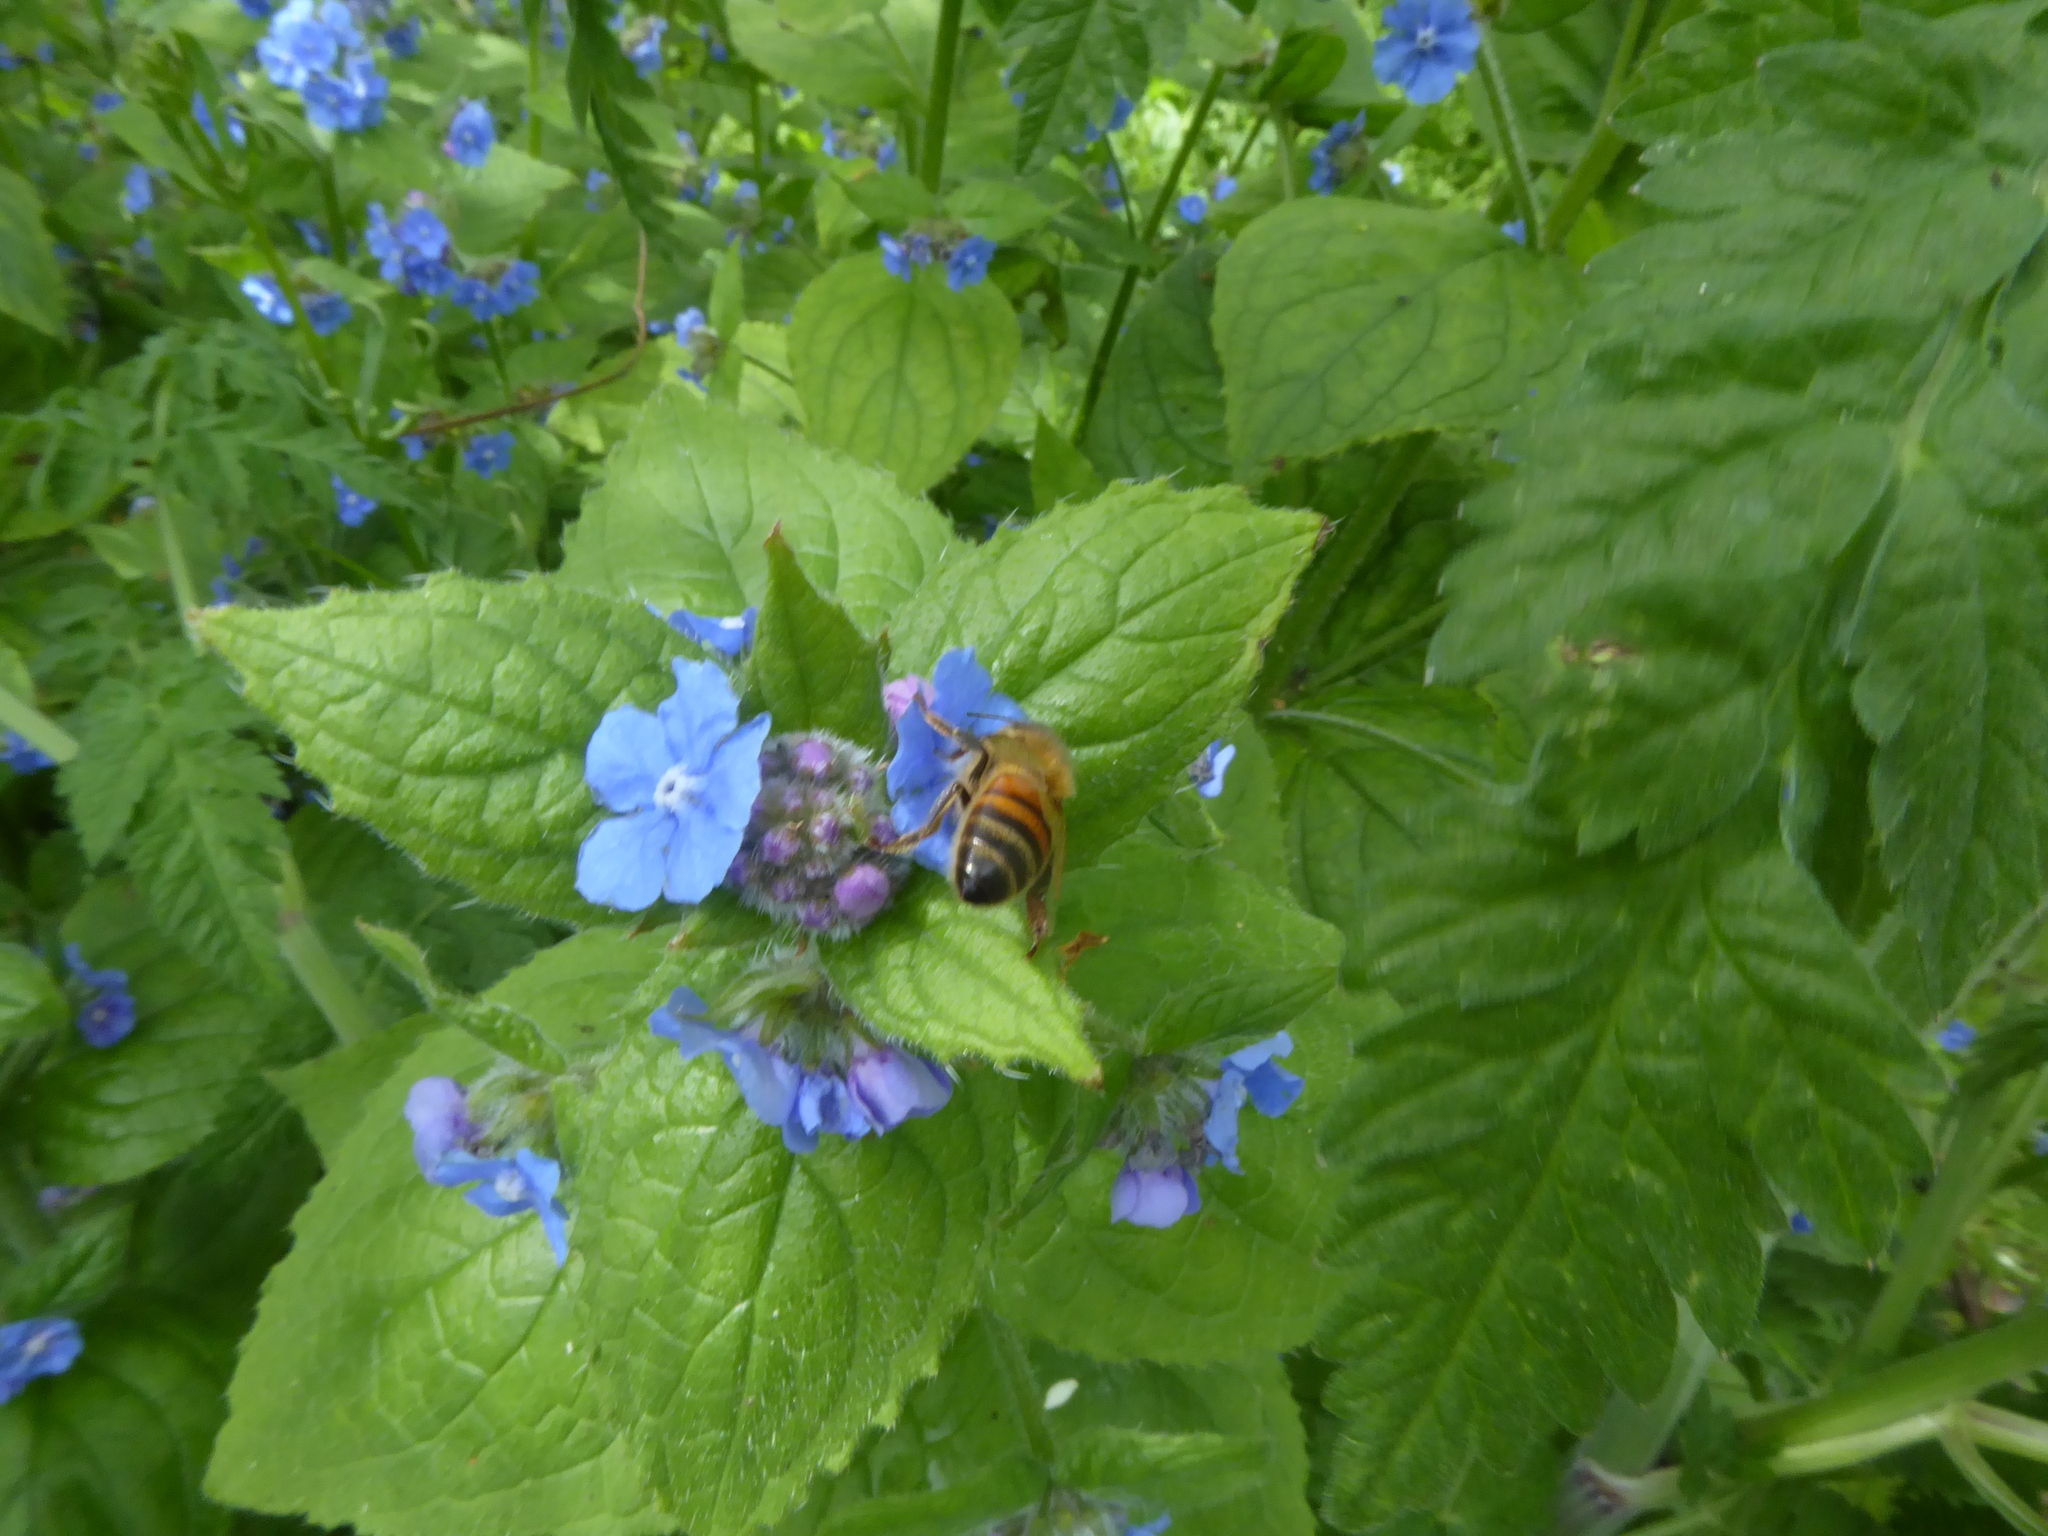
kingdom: Animalia
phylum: Arthropoda
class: Insecta
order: Hymenoptera
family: Apidae
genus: Apis
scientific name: Apis mellifera
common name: Honey bee
